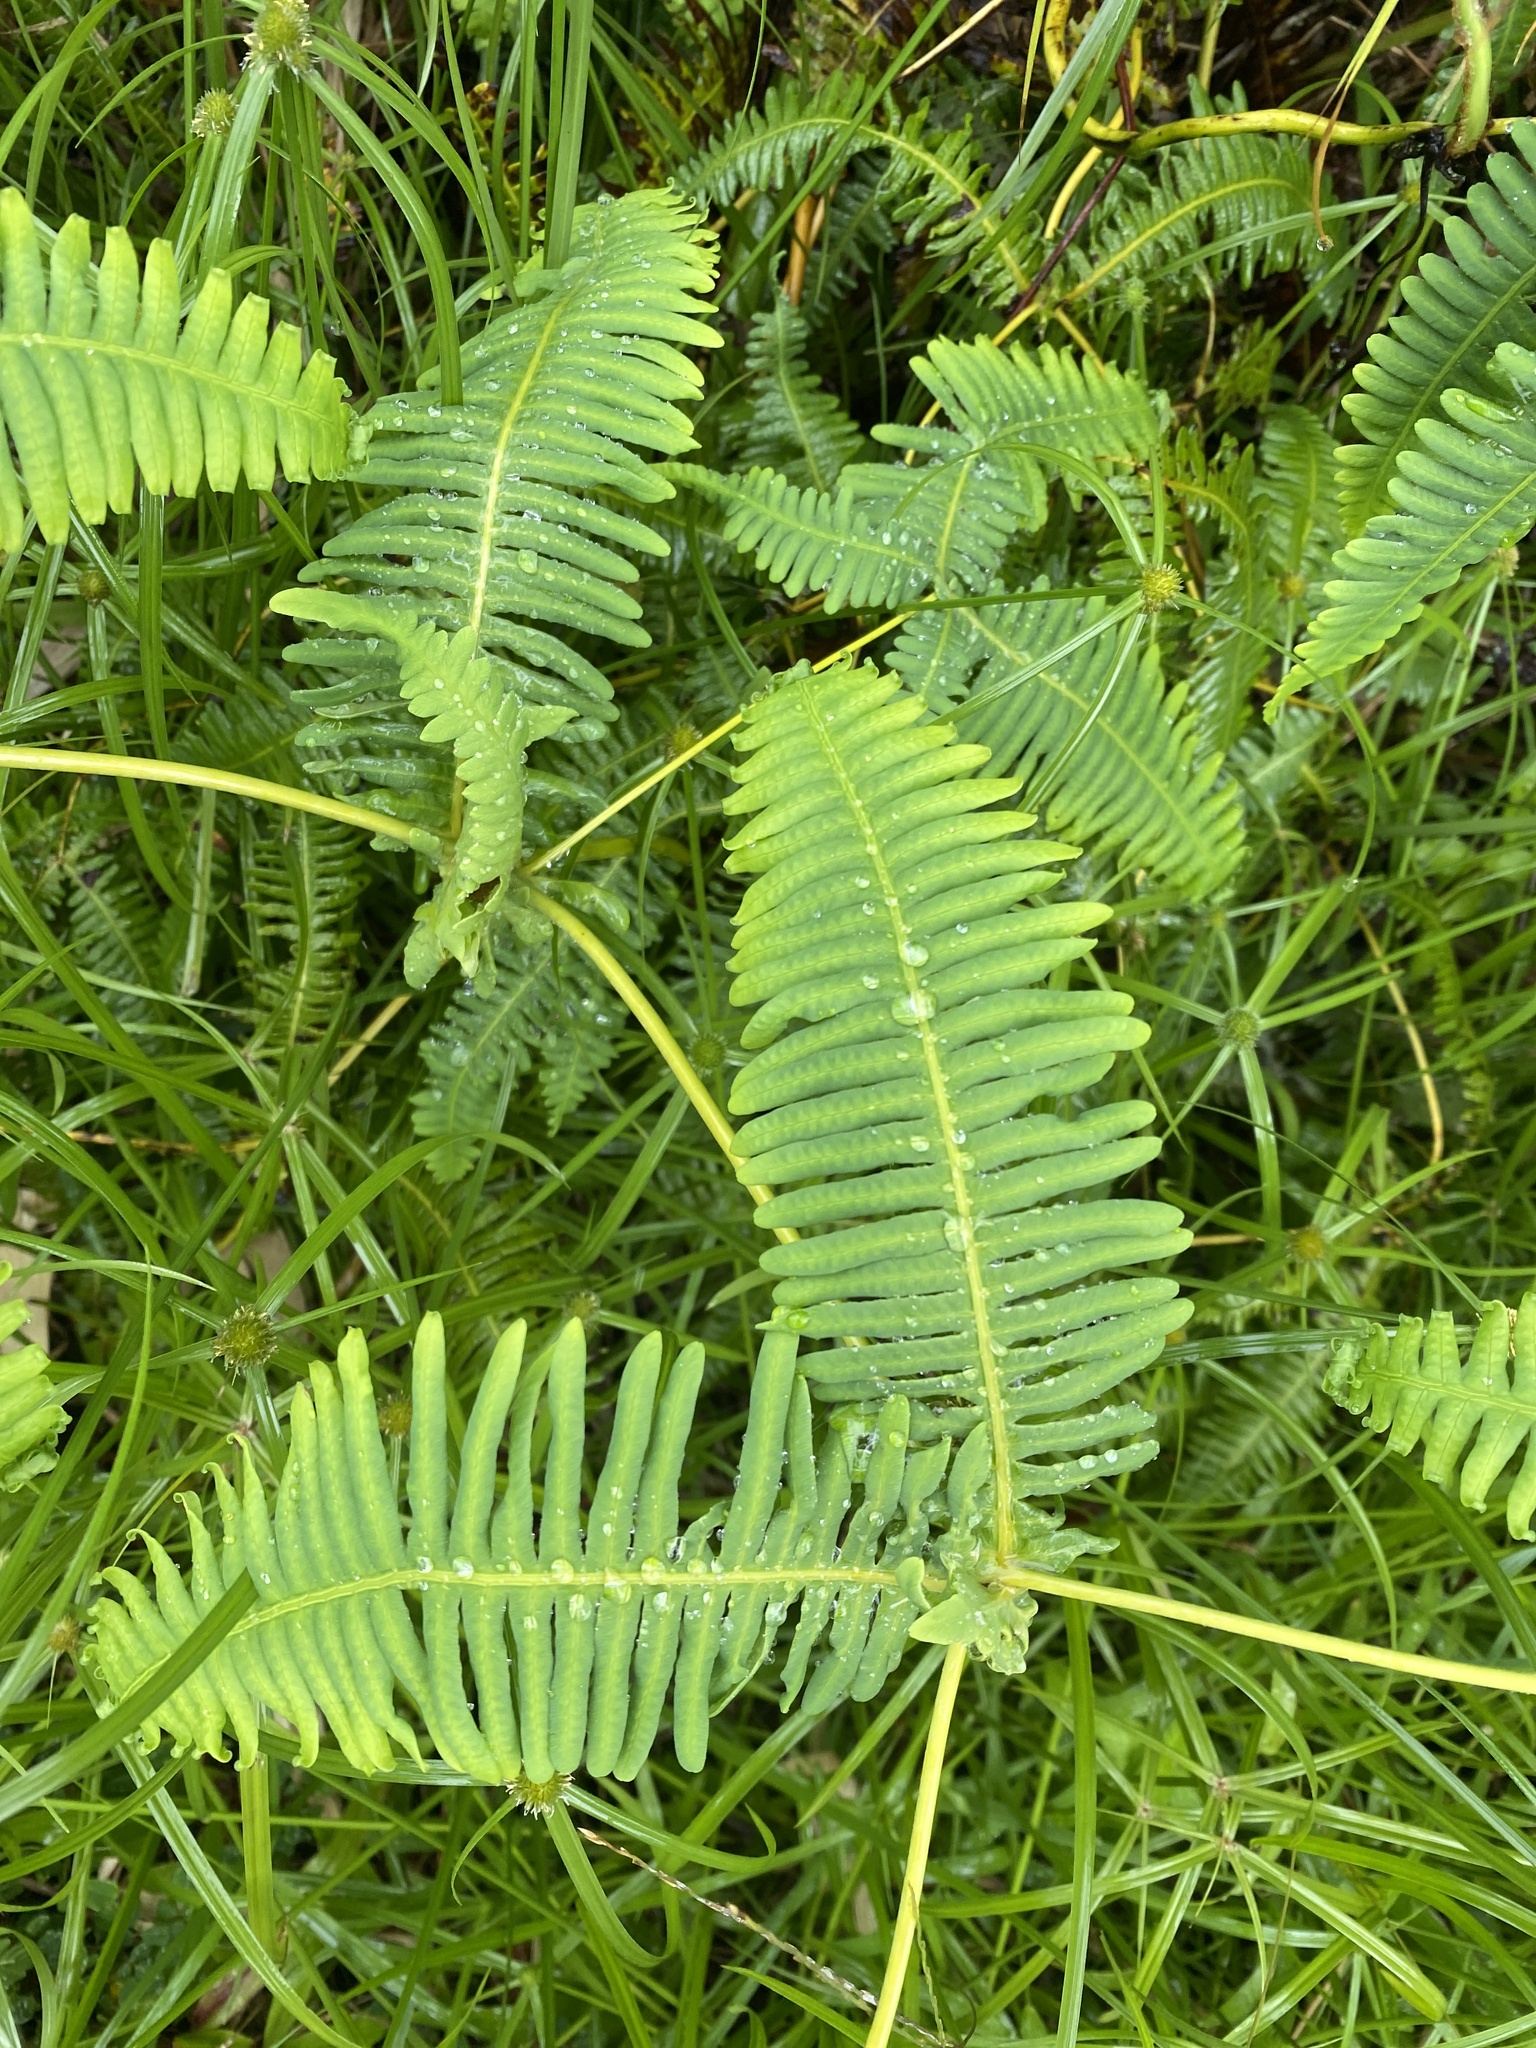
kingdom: Plantae
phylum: Tracheophyta
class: Polypodiopsida
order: Gleicheniales
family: Gleicheniaceae
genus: Dicranopteris
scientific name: Dicranopteris linearis
